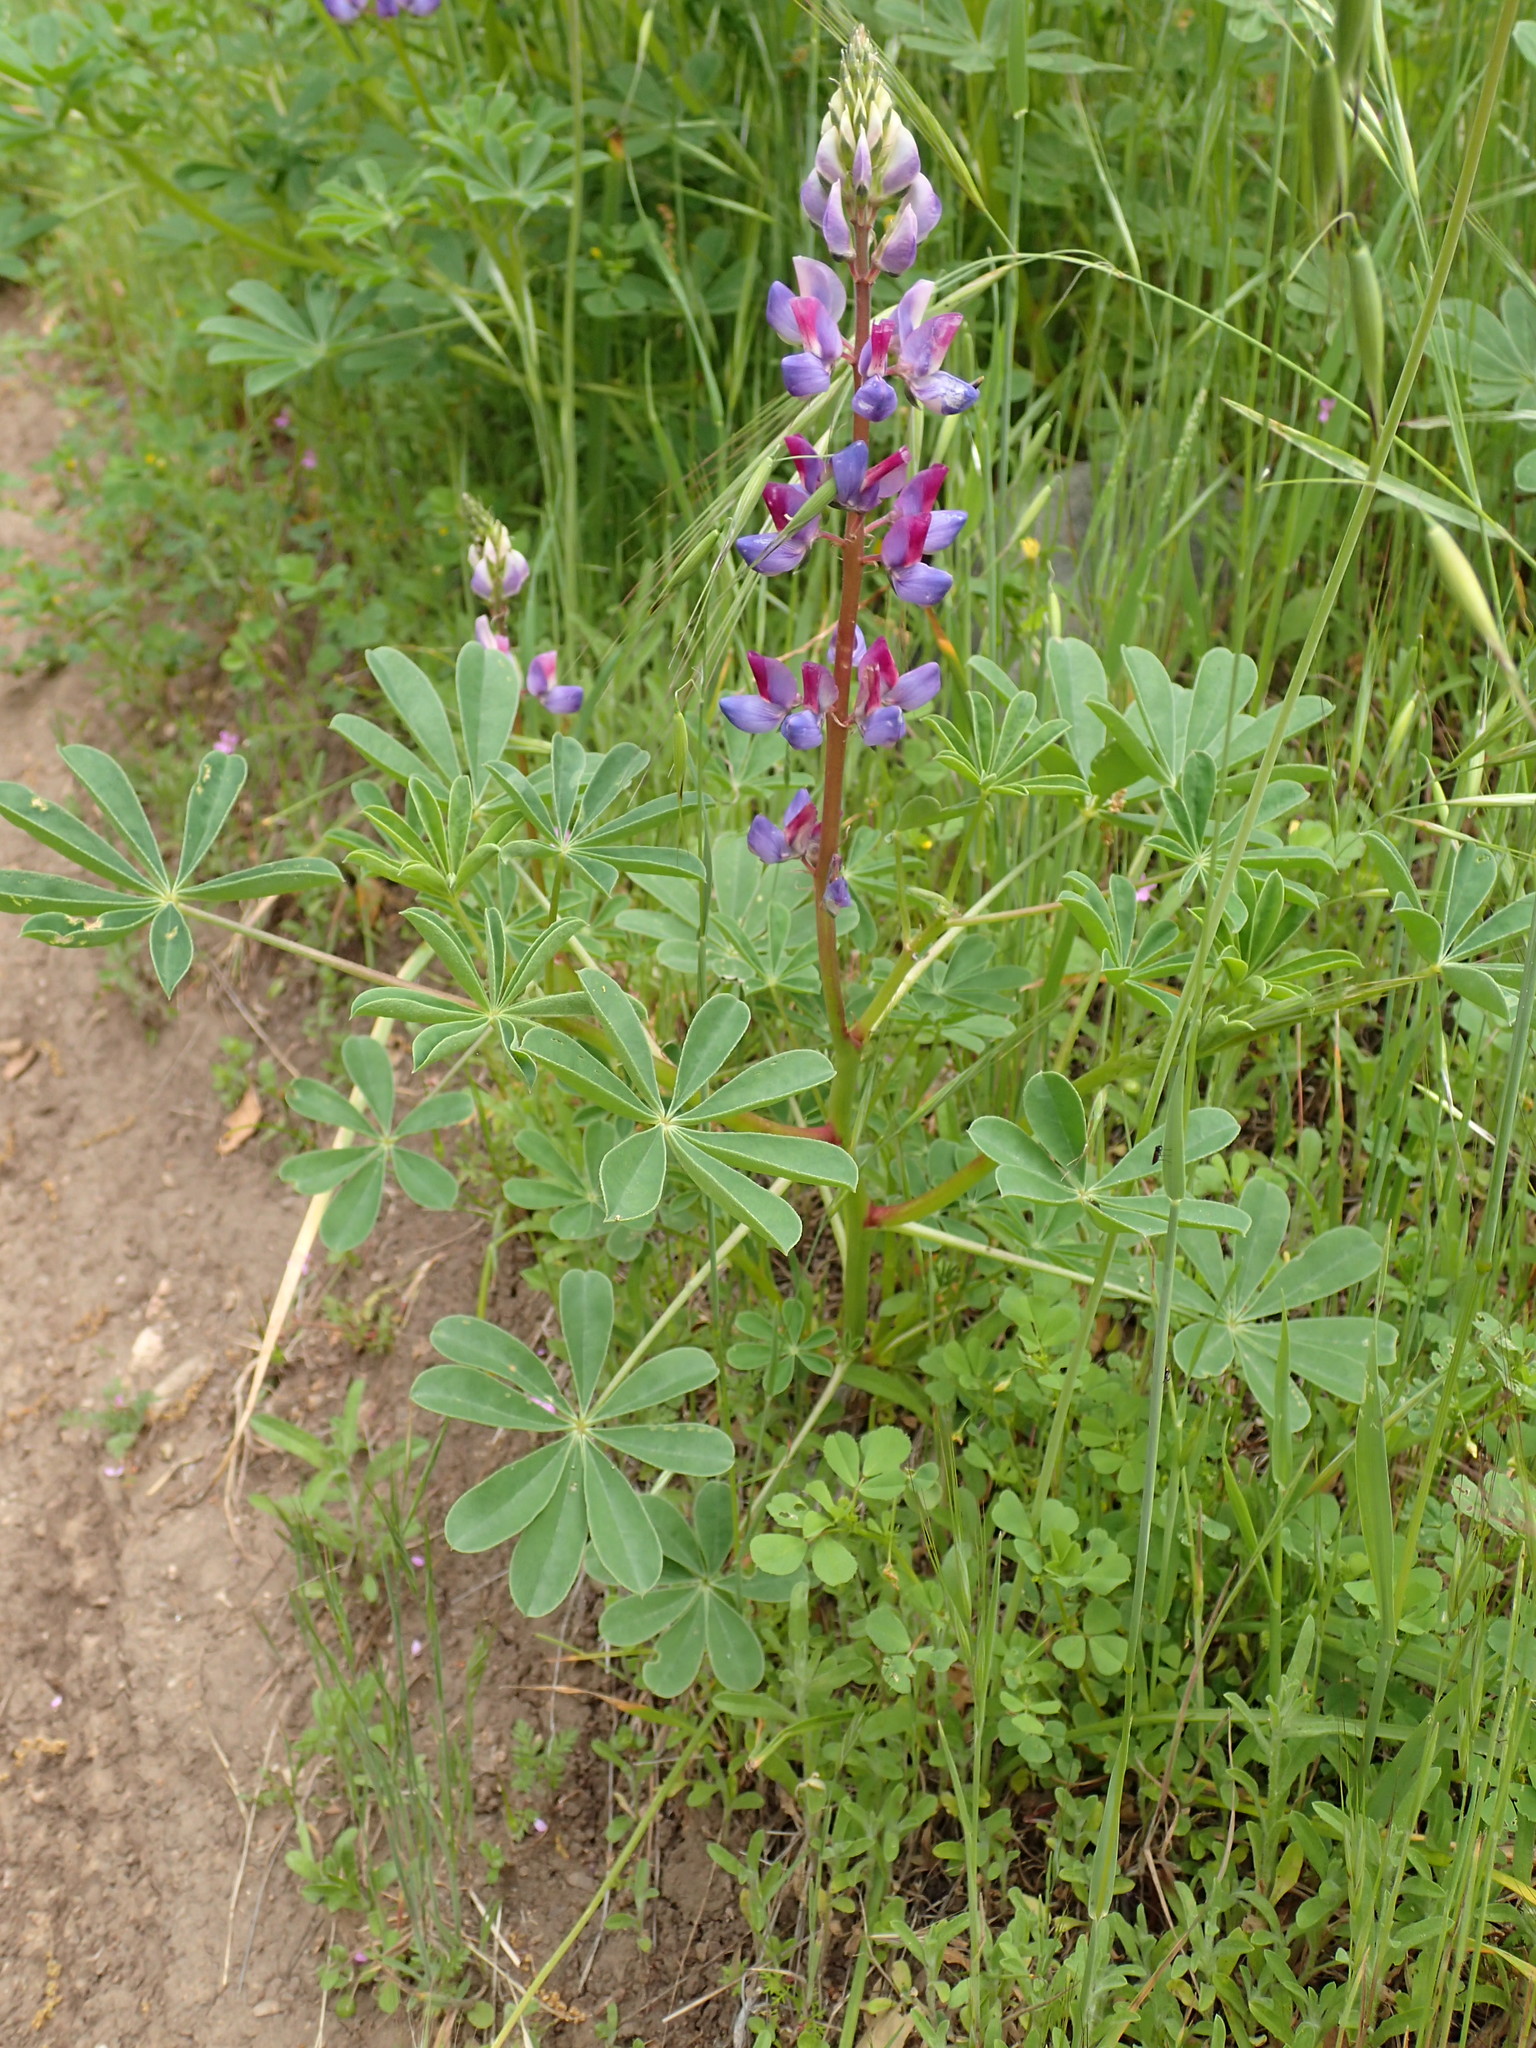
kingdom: Plantae
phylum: Tracheophyta
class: Magnoliopsida
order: Fabales
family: Fabaceae
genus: Lupinus
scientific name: Lupinus succulentus
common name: Arroyo lupine
